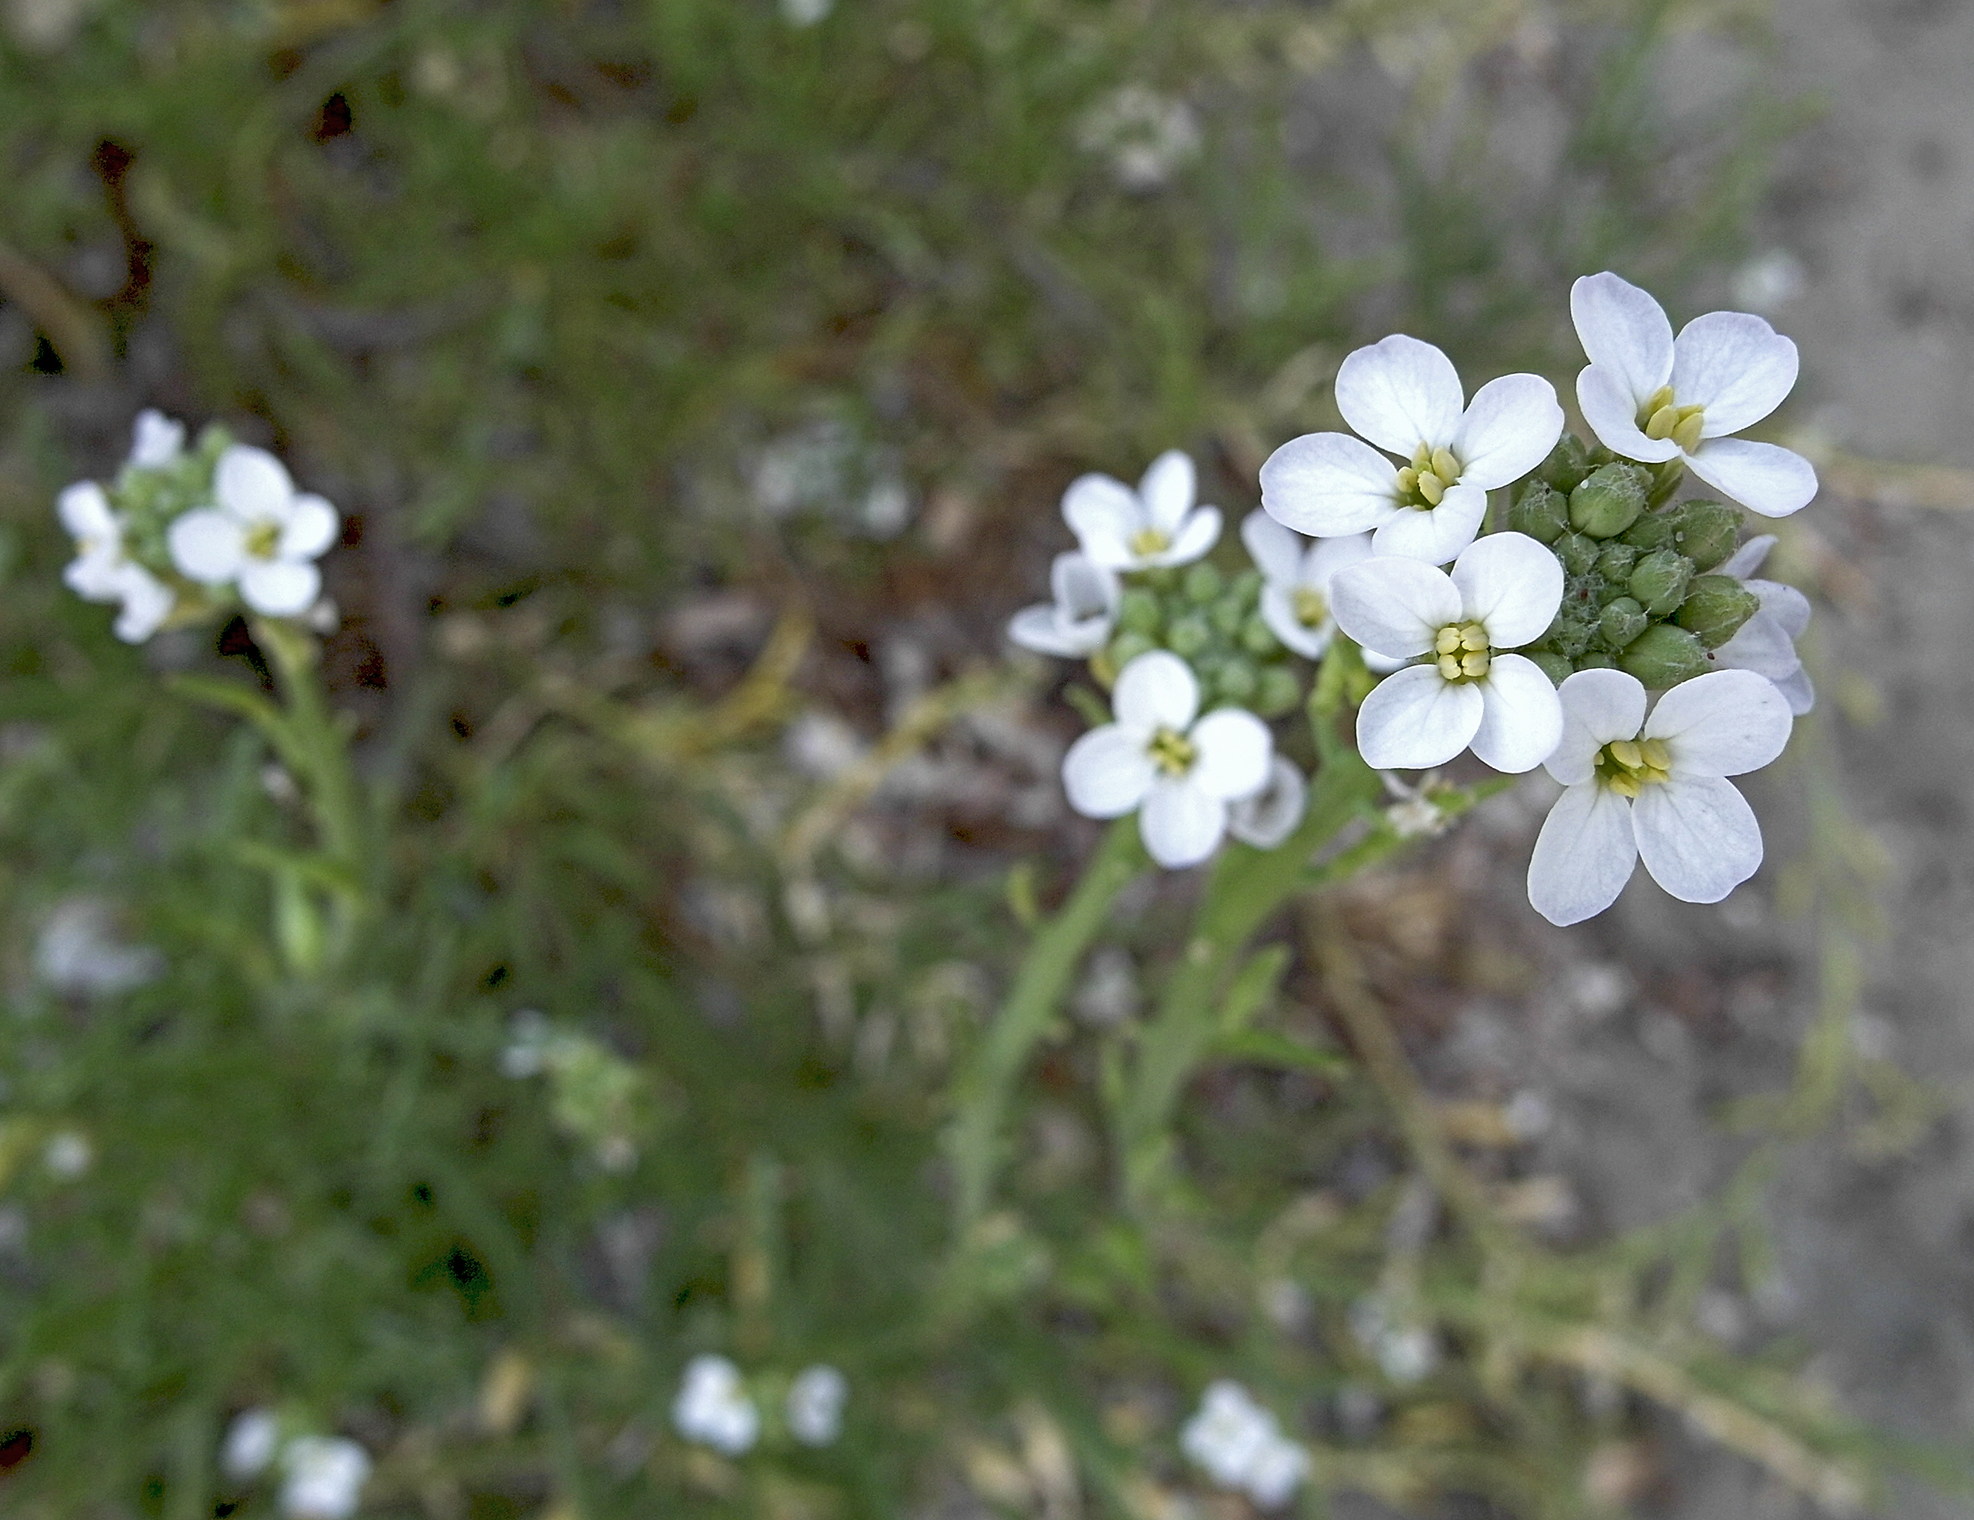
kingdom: Plantae
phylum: Tracheophyta
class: Magnoliopsida
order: Brassicales
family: Brassicaceae
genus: Cakile
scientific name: Cakile maritima
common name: Sea rocket
